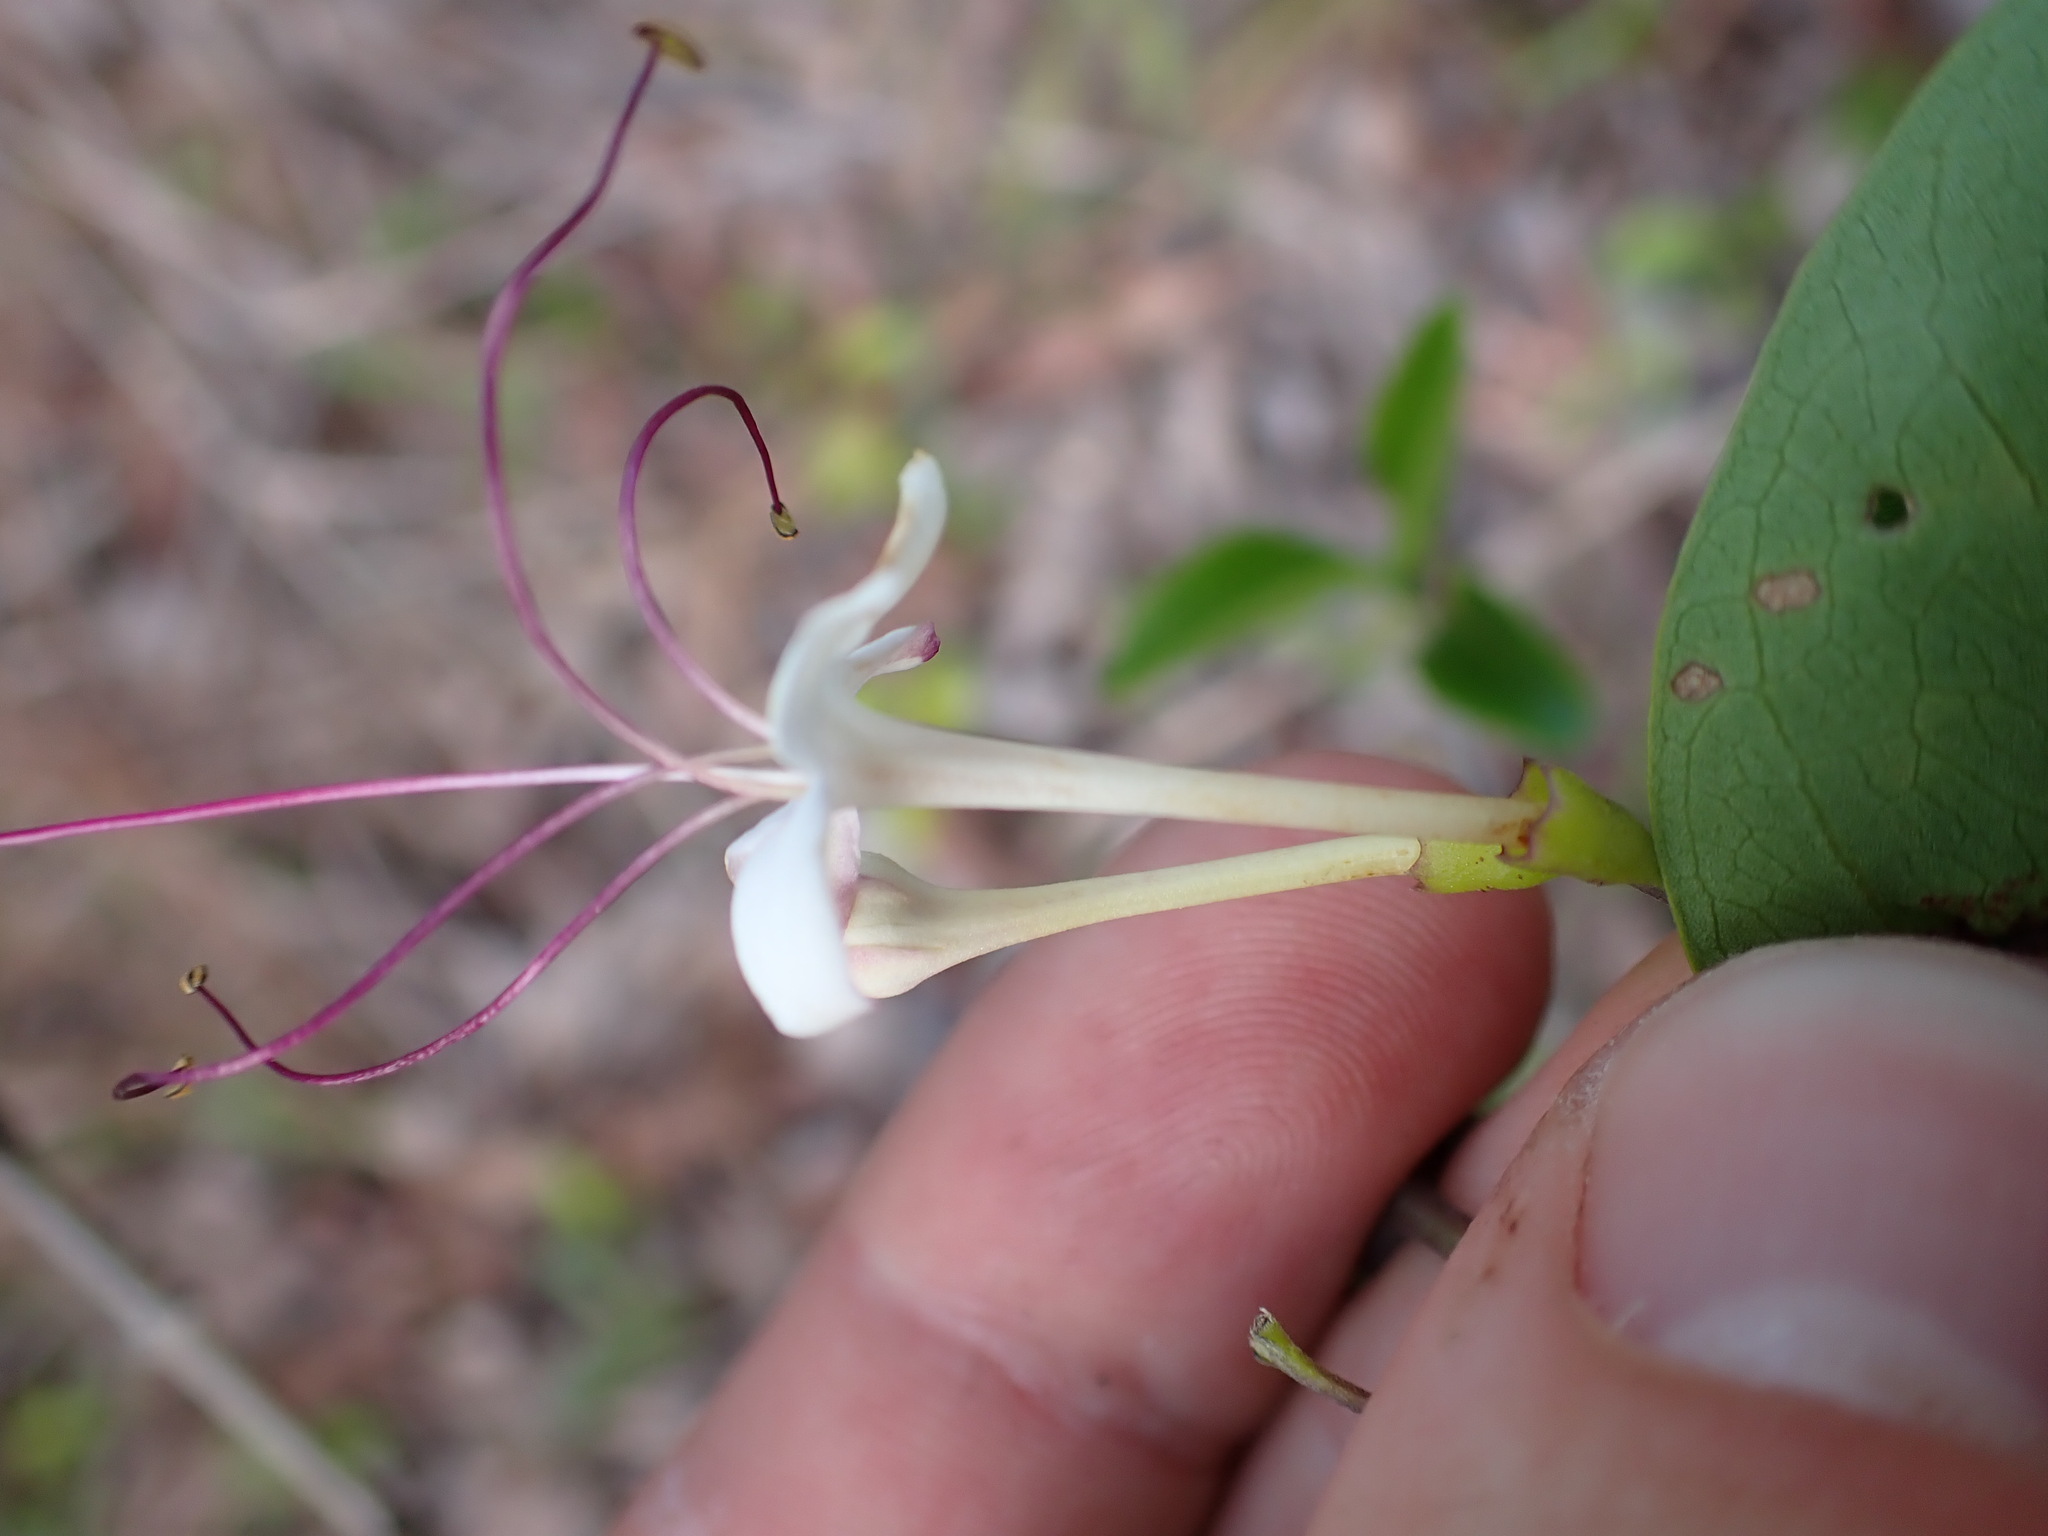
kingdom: Plantae
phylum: Tracheophyta
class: Magnoliopsida
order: Lamiales
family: Lamiaceae
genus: Volkameria
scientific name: Volkameria inermis
